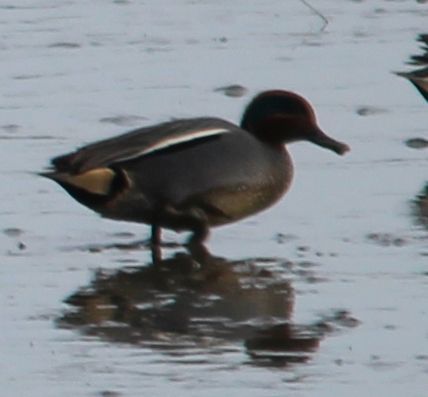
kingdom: Animalia
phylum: Chordata
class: Aves
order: Anseriformes
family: Anatidae
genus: Anas
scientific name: Anas crecca
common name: Eurasian teal
